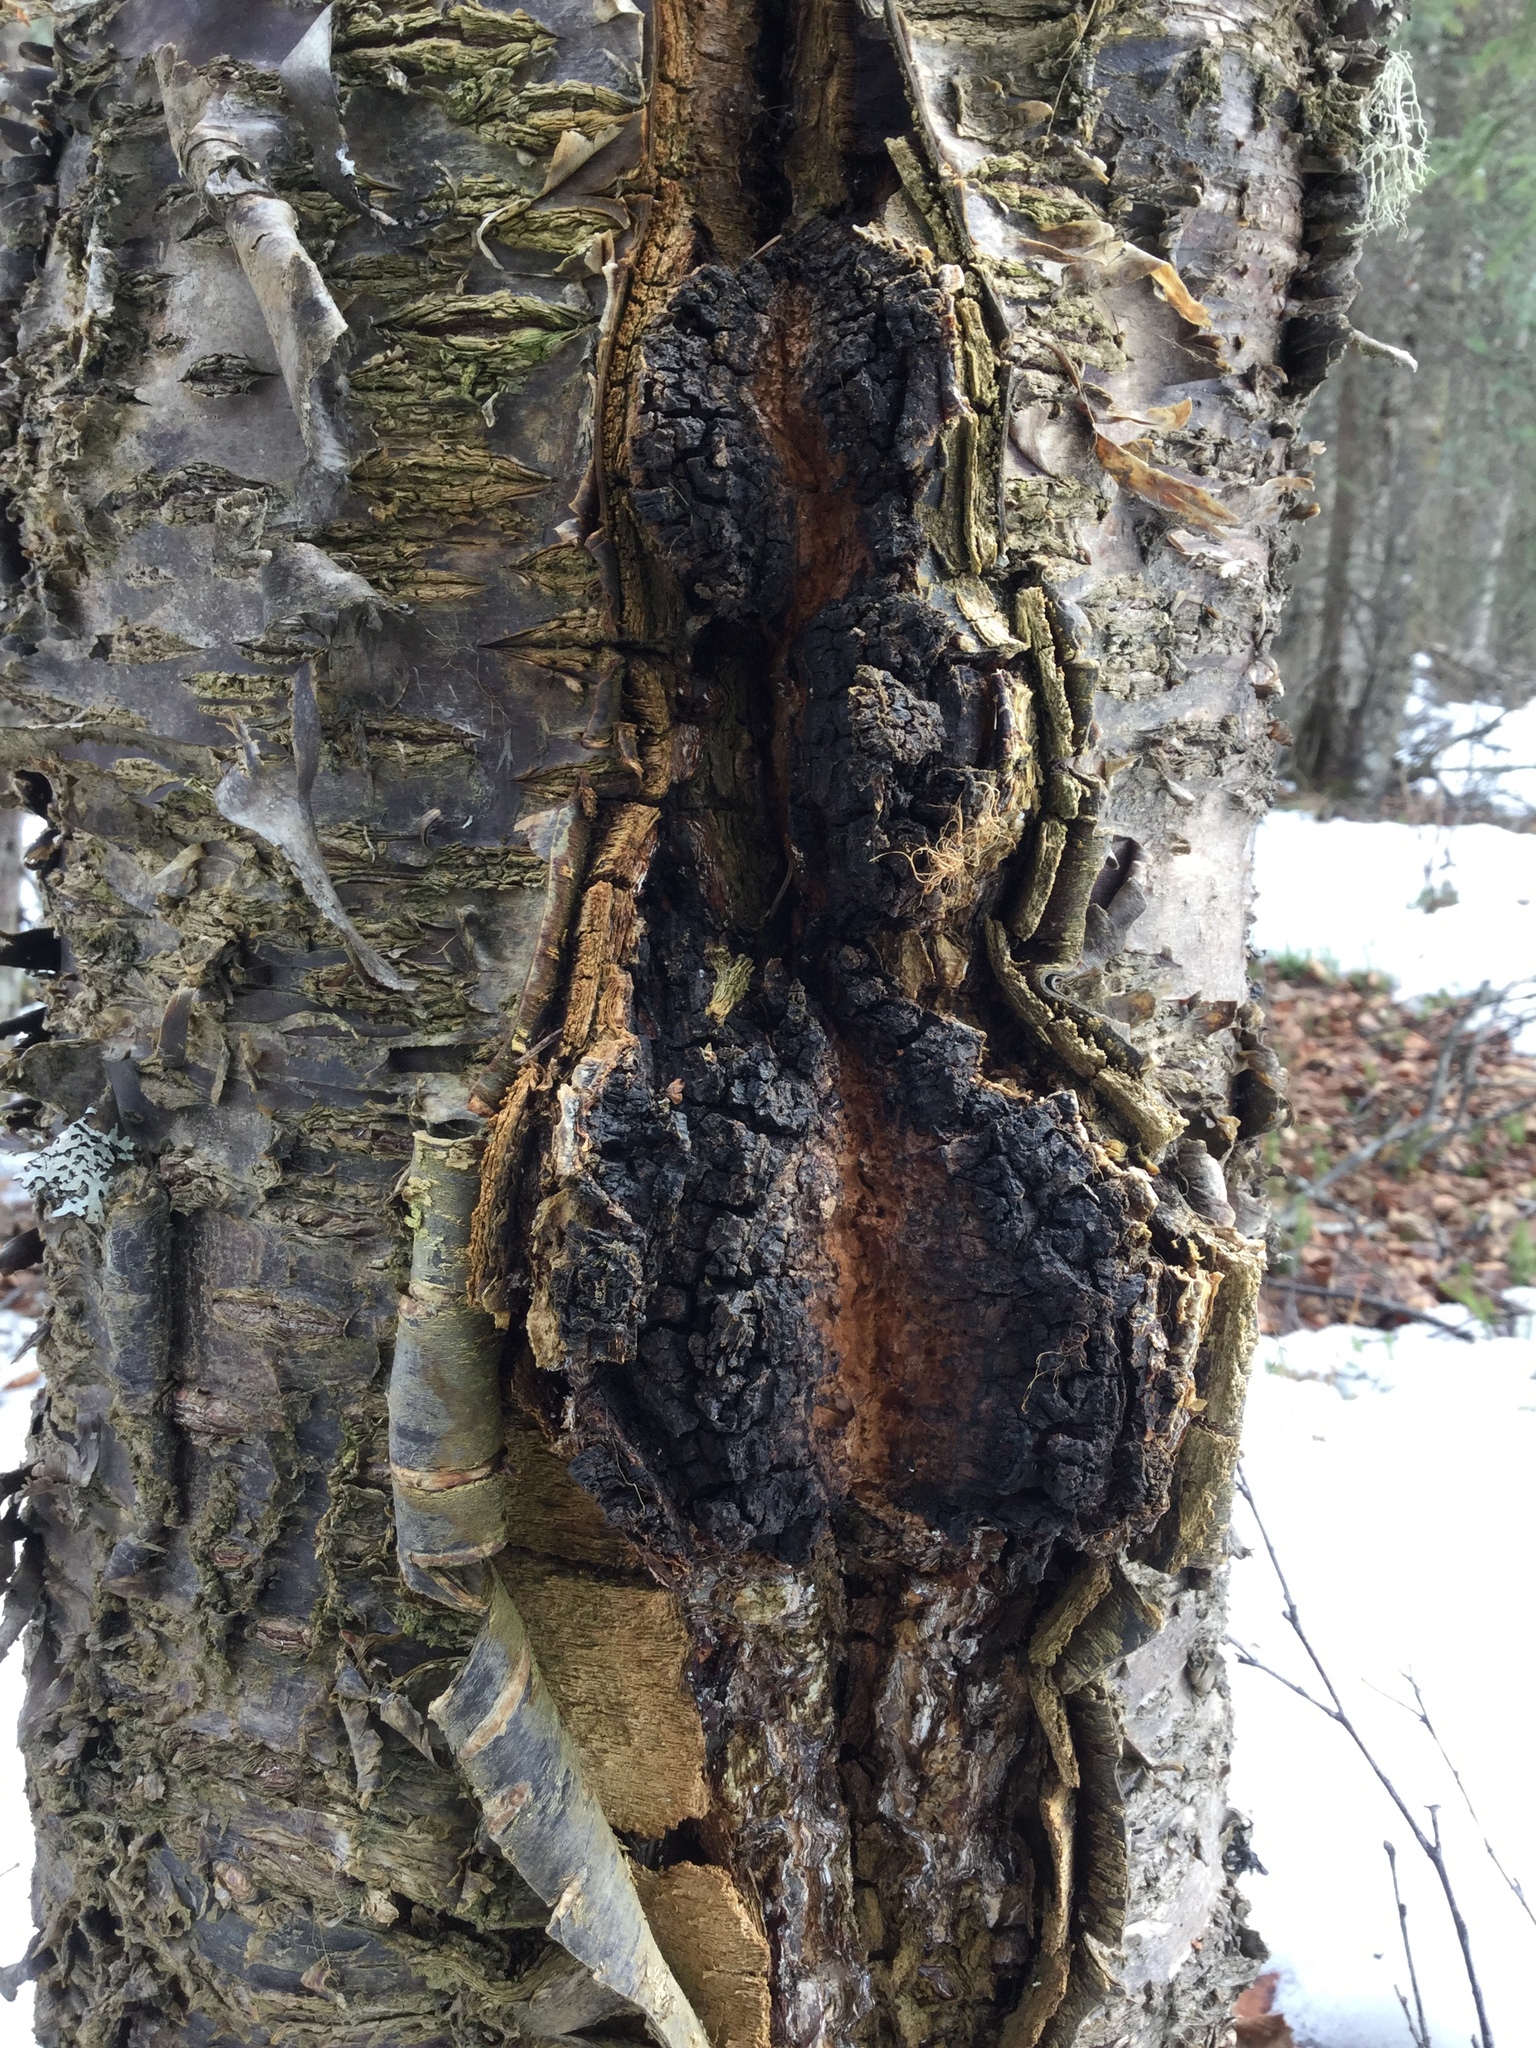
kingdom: Fungi
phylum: Basidiomycota
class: Agaricomycetes
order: Hymenochaetales
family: Hymenochaetaceae
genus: Inonotus
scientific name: Inonotus obliquus
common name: Chaga
